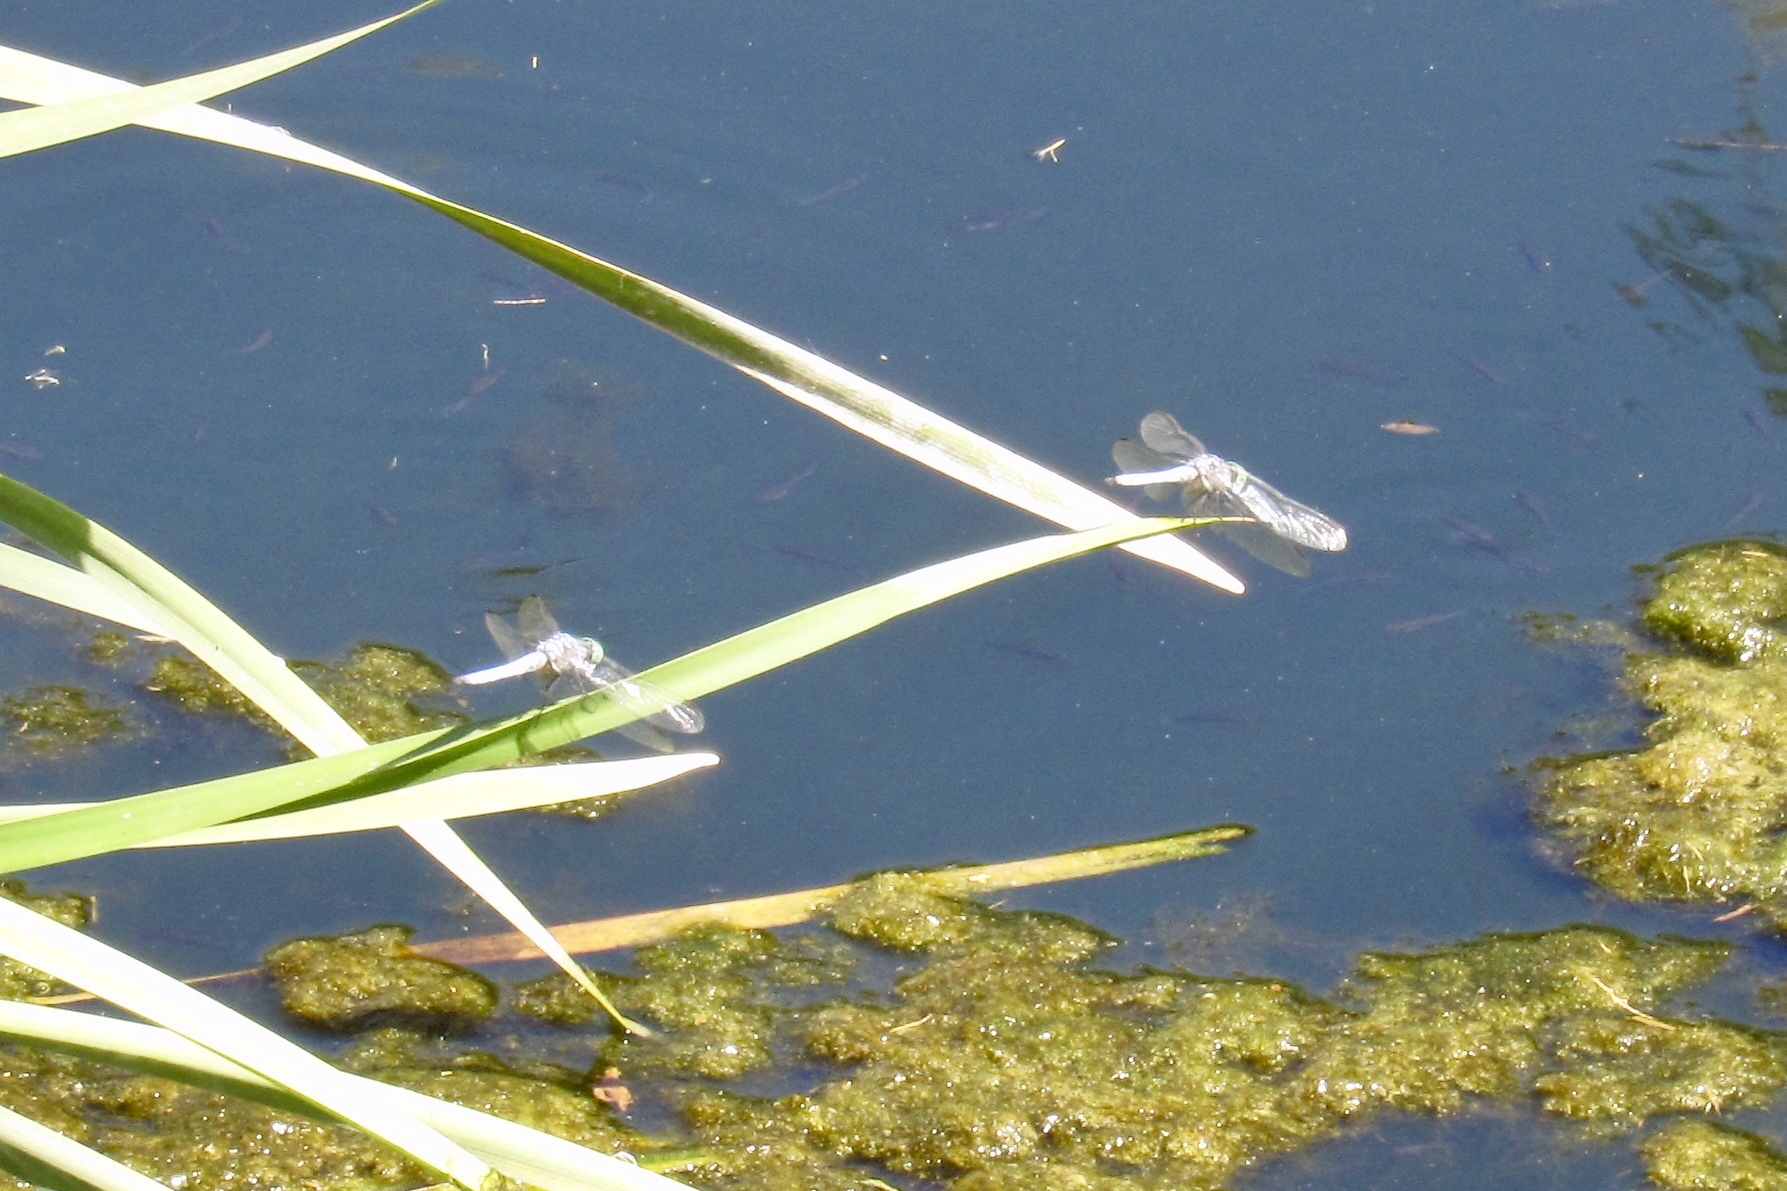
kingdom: Animalia
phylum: Arthropoda
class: Insecta
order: Odonata
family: Libellulidae
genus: Pachydiplax
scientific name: Pachydiplax longipennis
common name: Blue dasher
